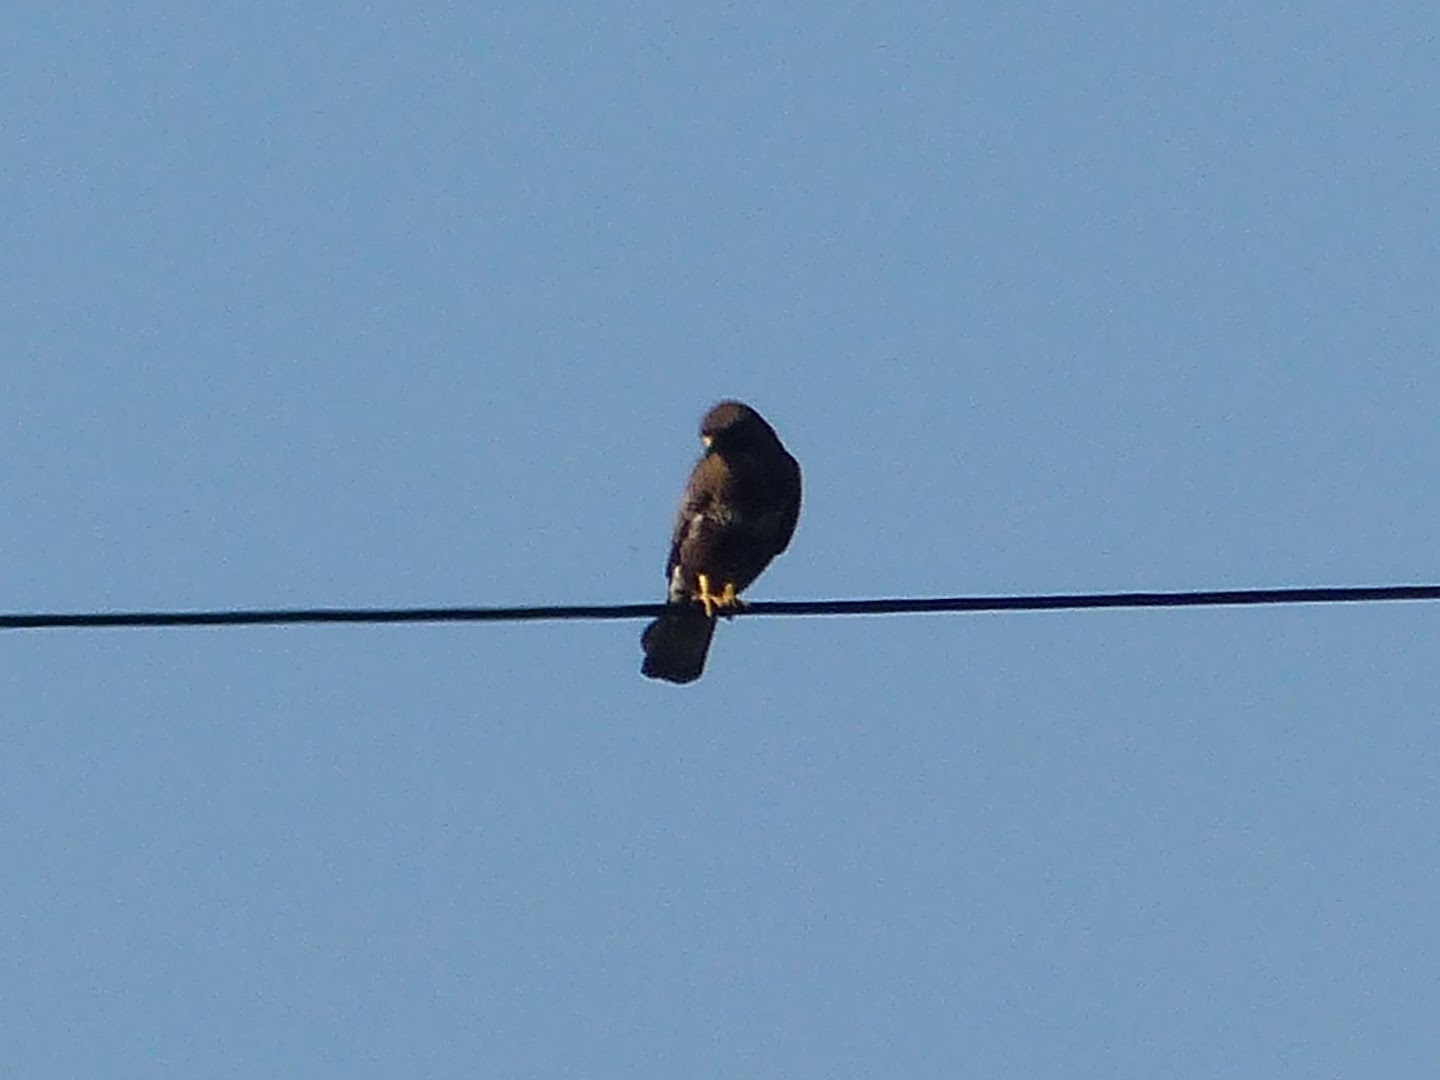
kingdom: Animalia
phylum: Chordata
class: Aves
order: Accipitriformes
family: Accipitridae
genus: Buteo
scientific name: Buteo buteo
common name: Common buzzard
